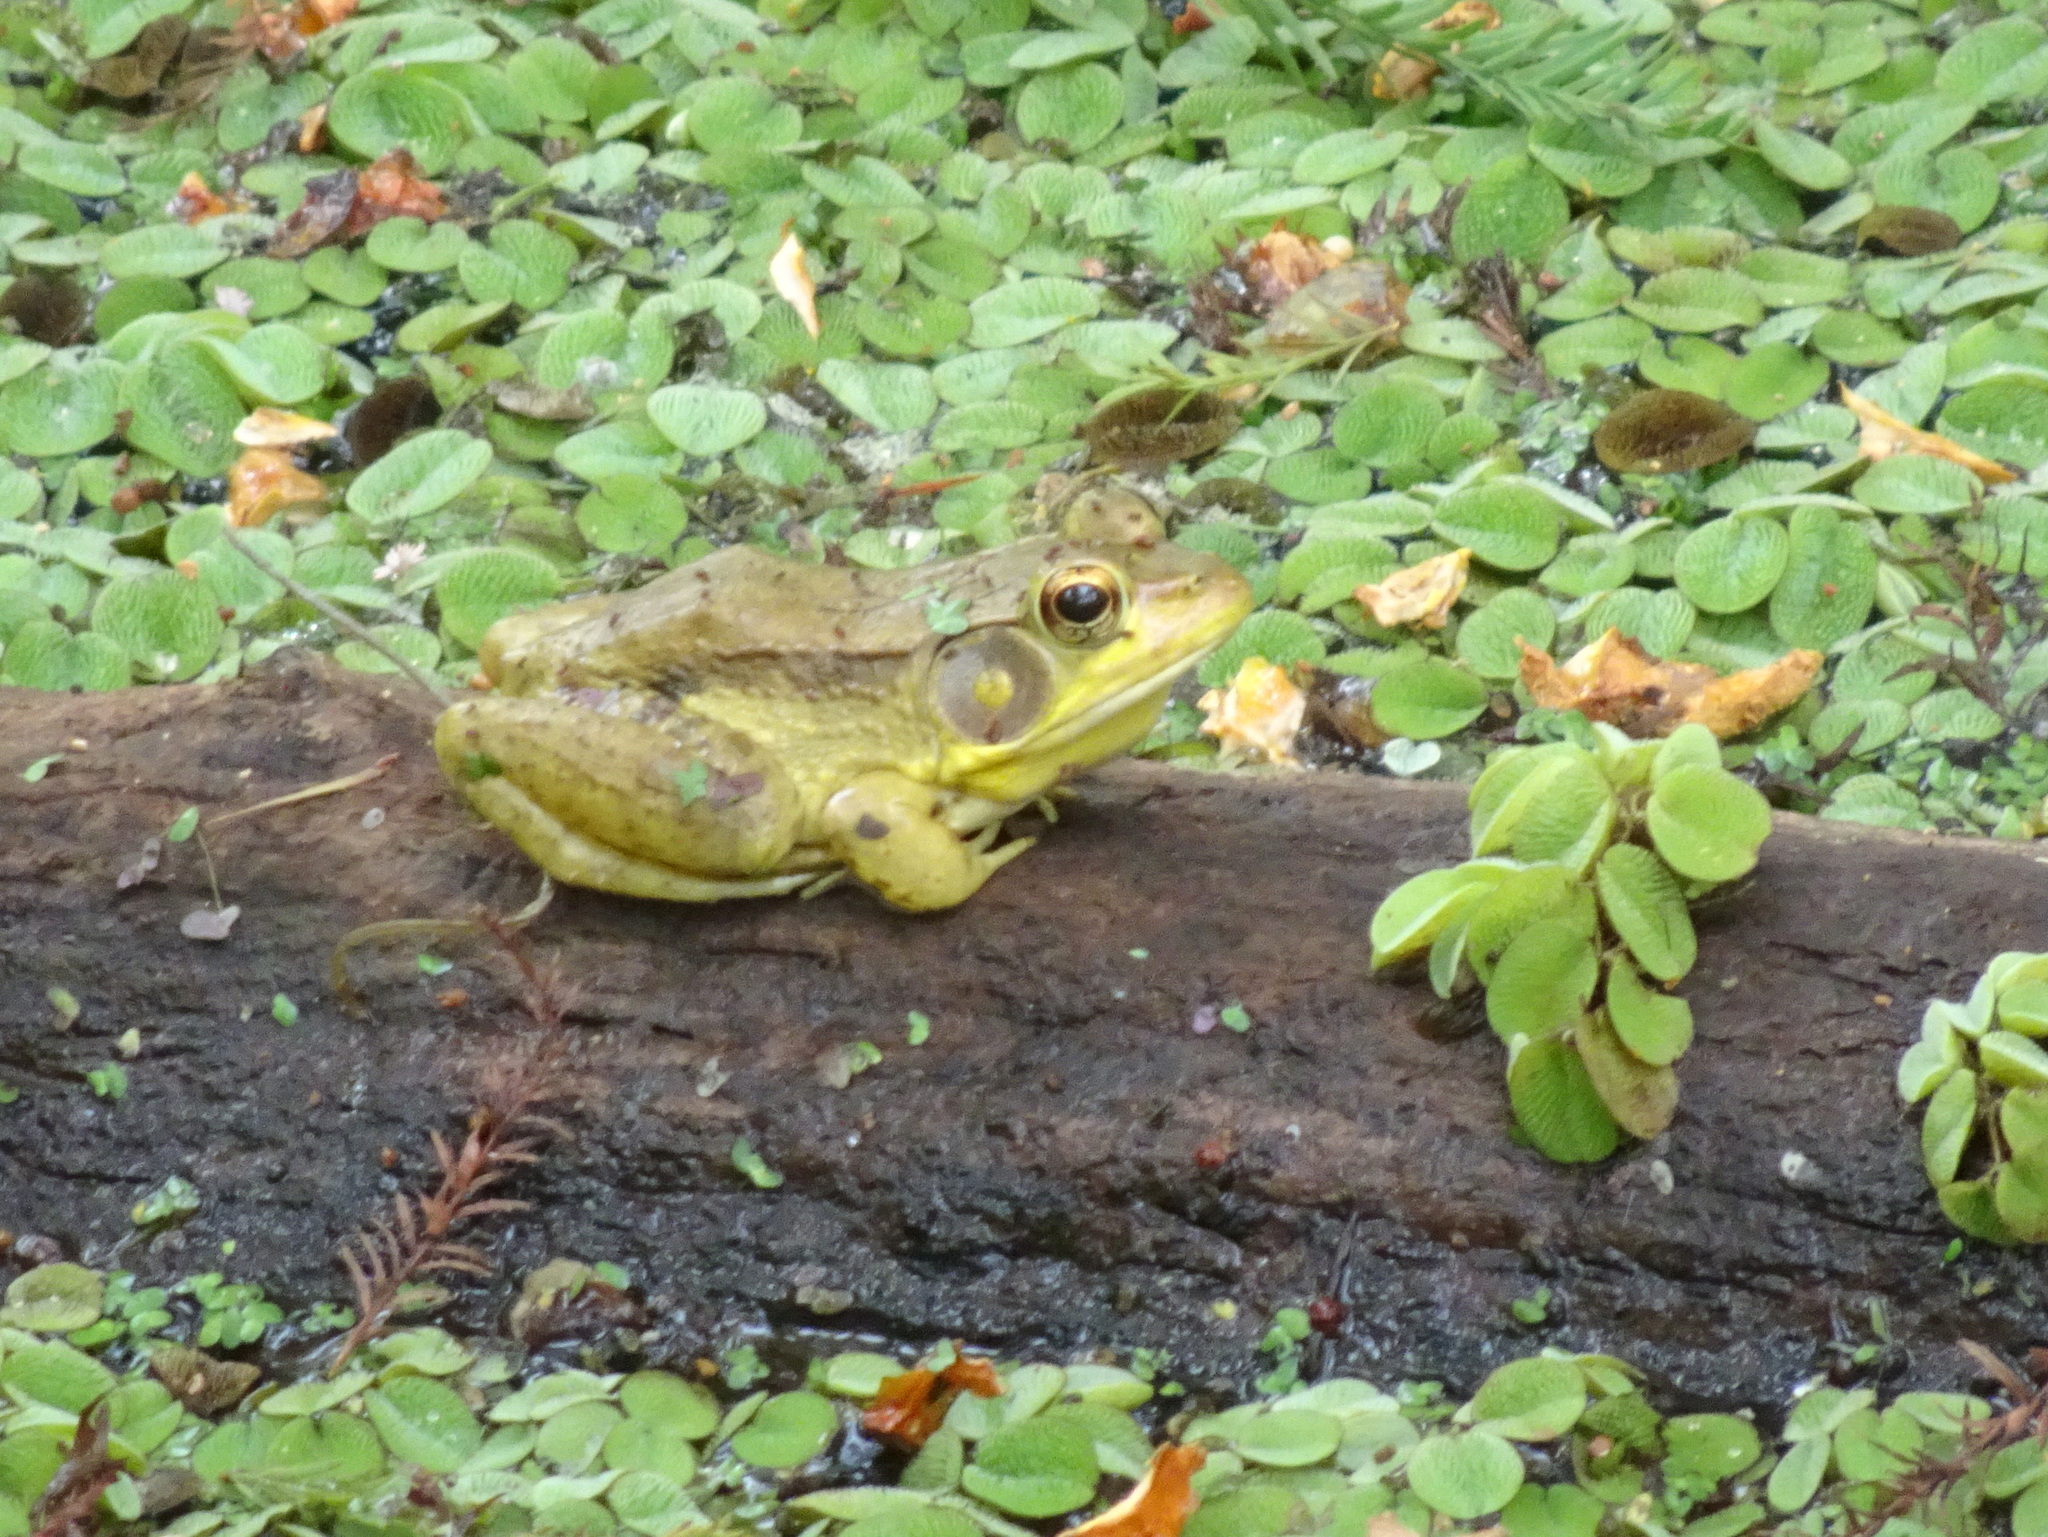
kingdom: Animalia
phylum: Chordata
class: Amphibia
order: Anura
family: Ranidae
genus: Lithobates
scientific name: Lithobates clamitans
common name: Green frog
